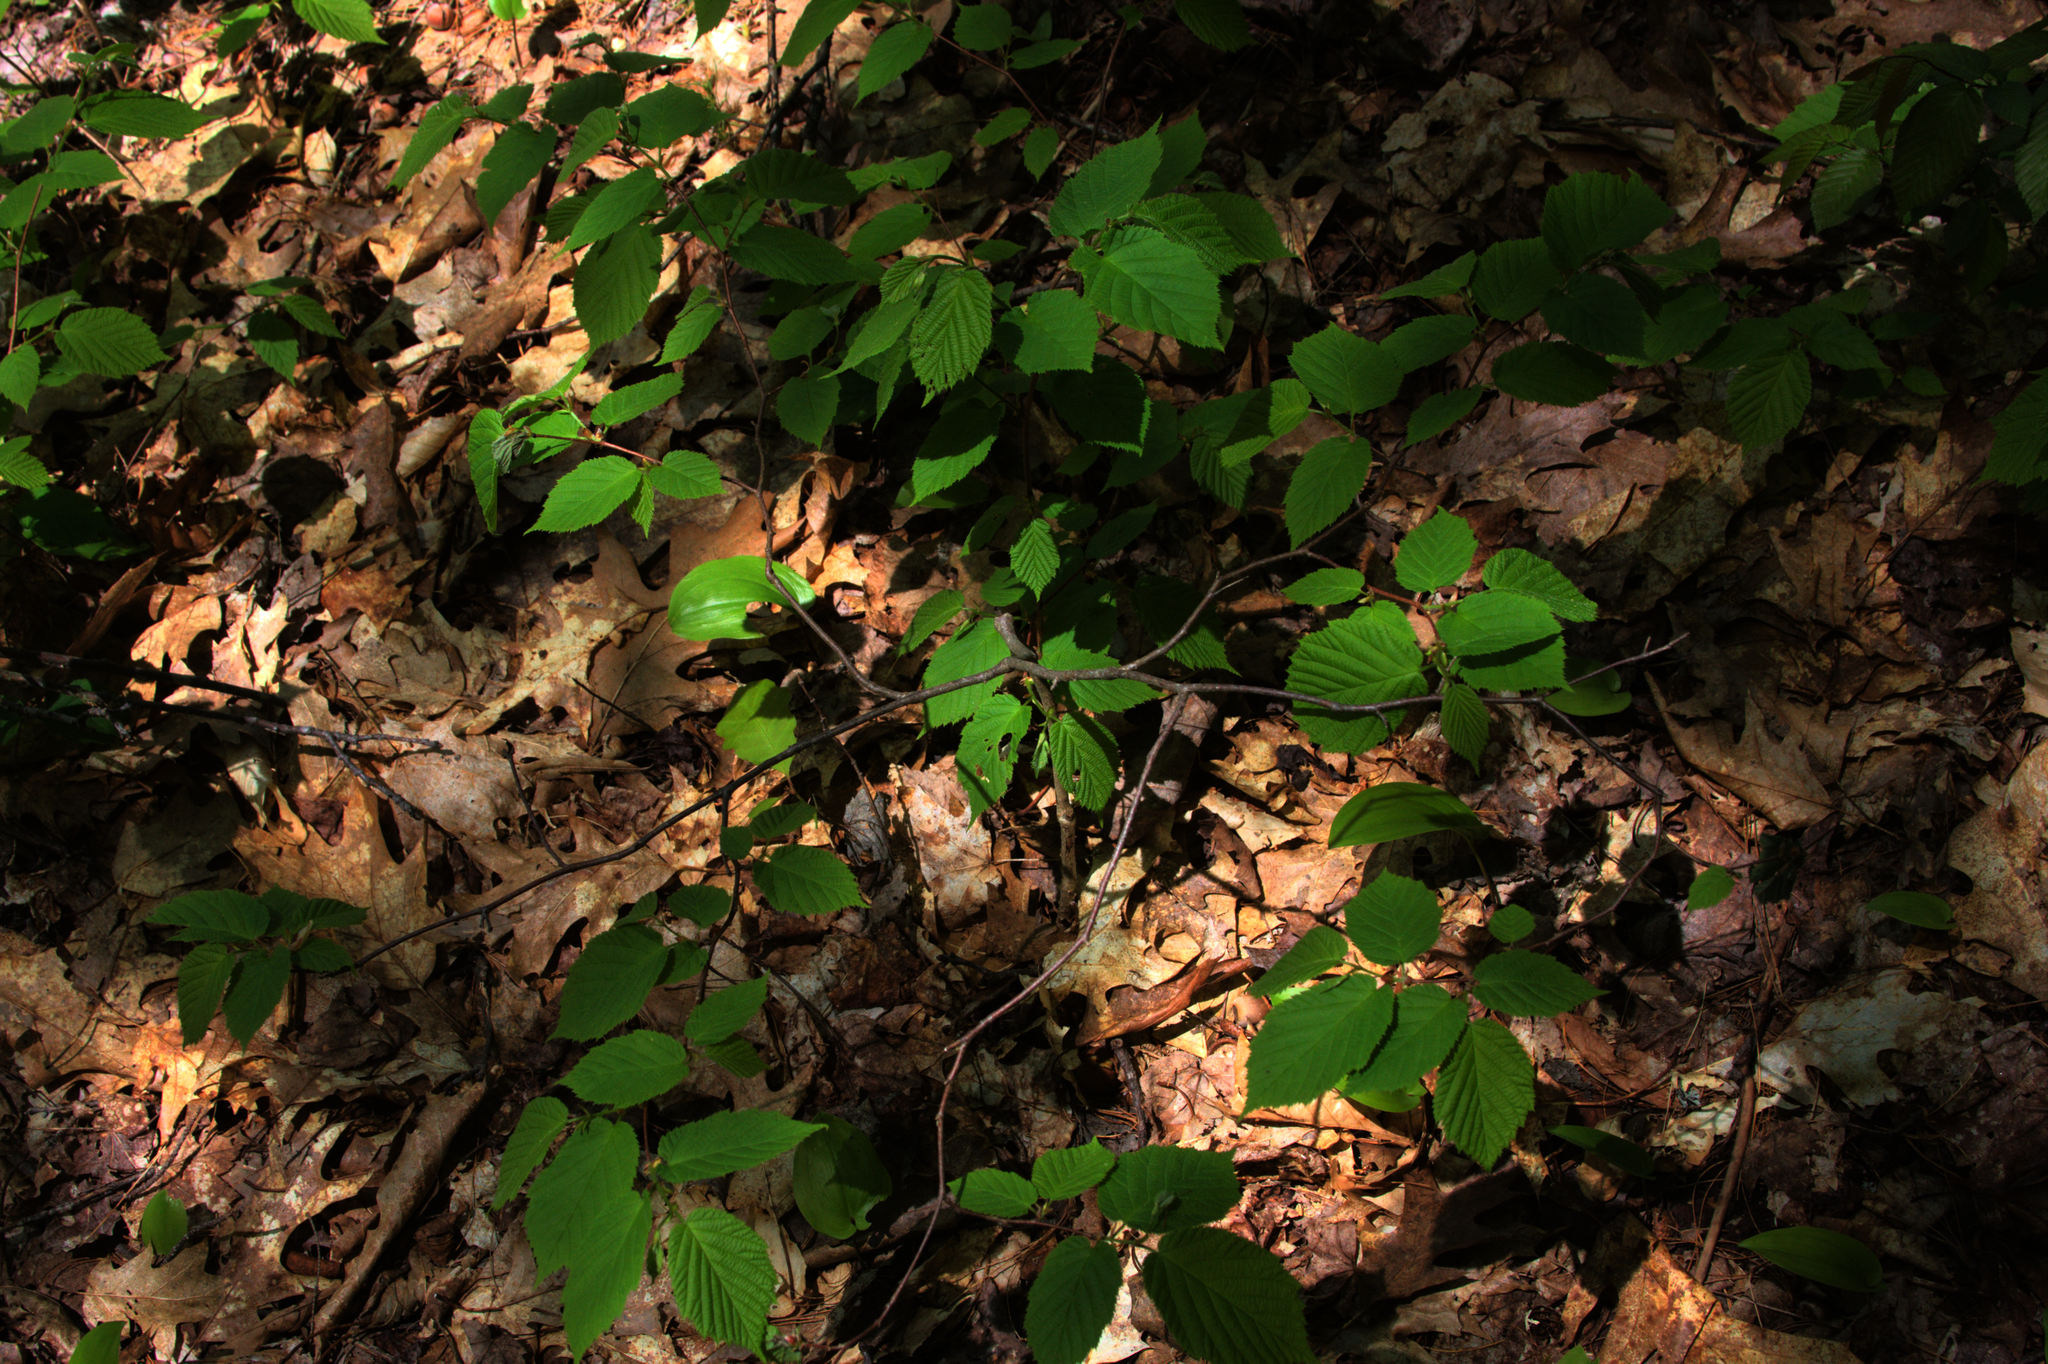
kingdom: Plantae
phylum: Tracheophyta
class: Liliopsida
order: Asparagales
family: Asparagaceae
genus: Maianthemum
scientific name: Maianthemum canadense
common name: False lily-of-the-valley
